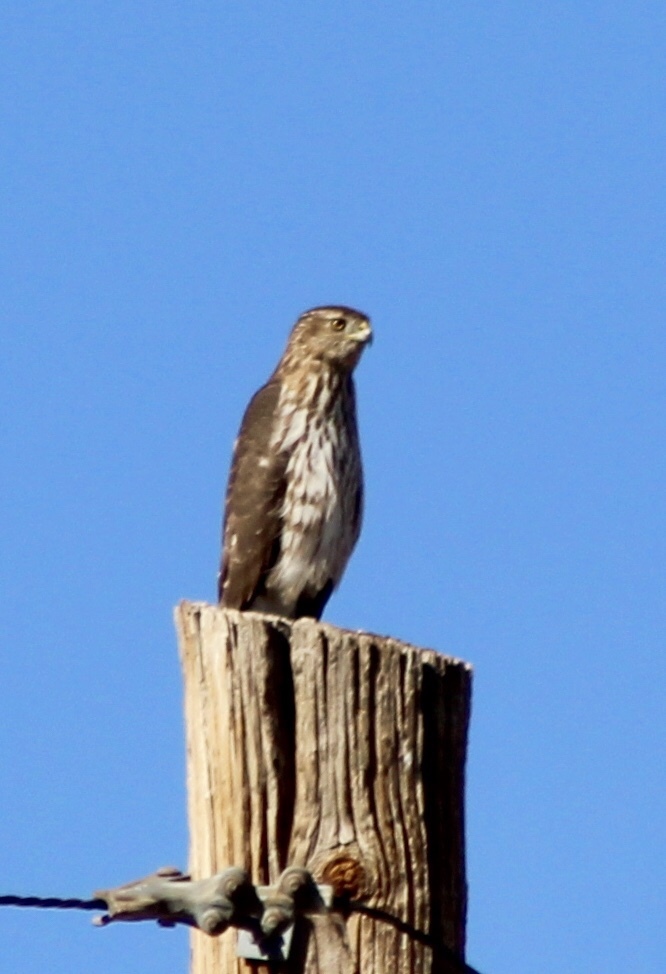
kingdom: Animalia
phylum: Chordata
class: Aves
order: Accipitriformes
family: Accipitridae
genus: Accipiter
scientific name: Accipiter cooperii
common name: Cooper's hawk
